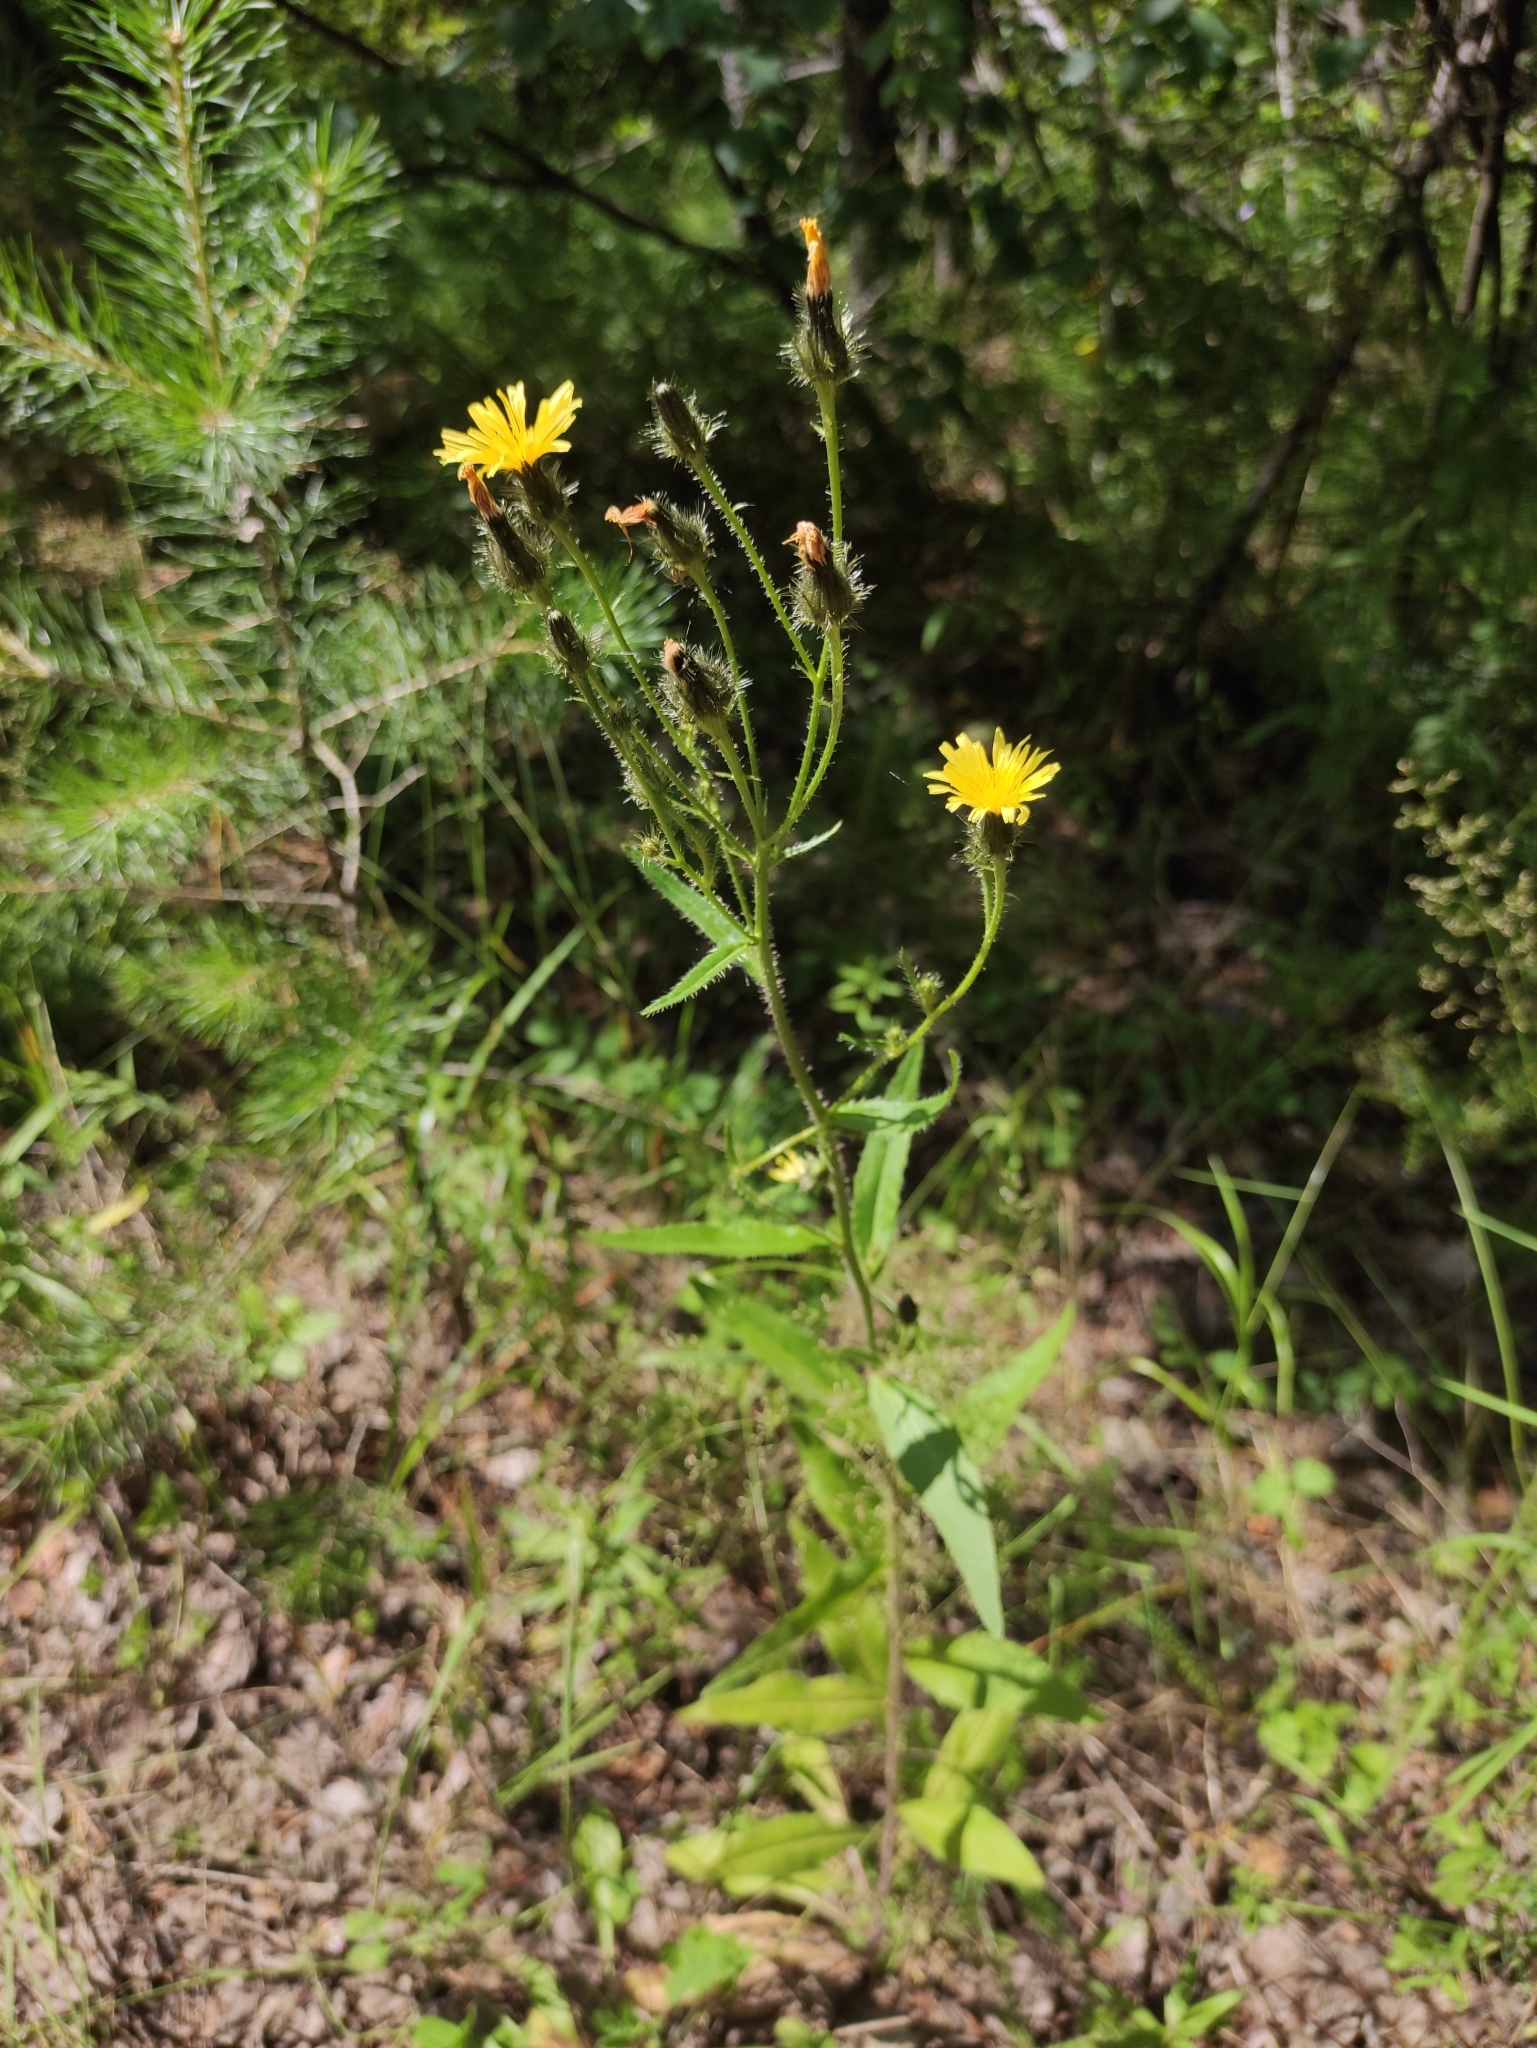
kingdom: Plantae
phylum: Tracheophyta
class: Magnoliopsida
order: Asterales
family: Asteraceae
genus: Picris
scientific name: Picris davurica
